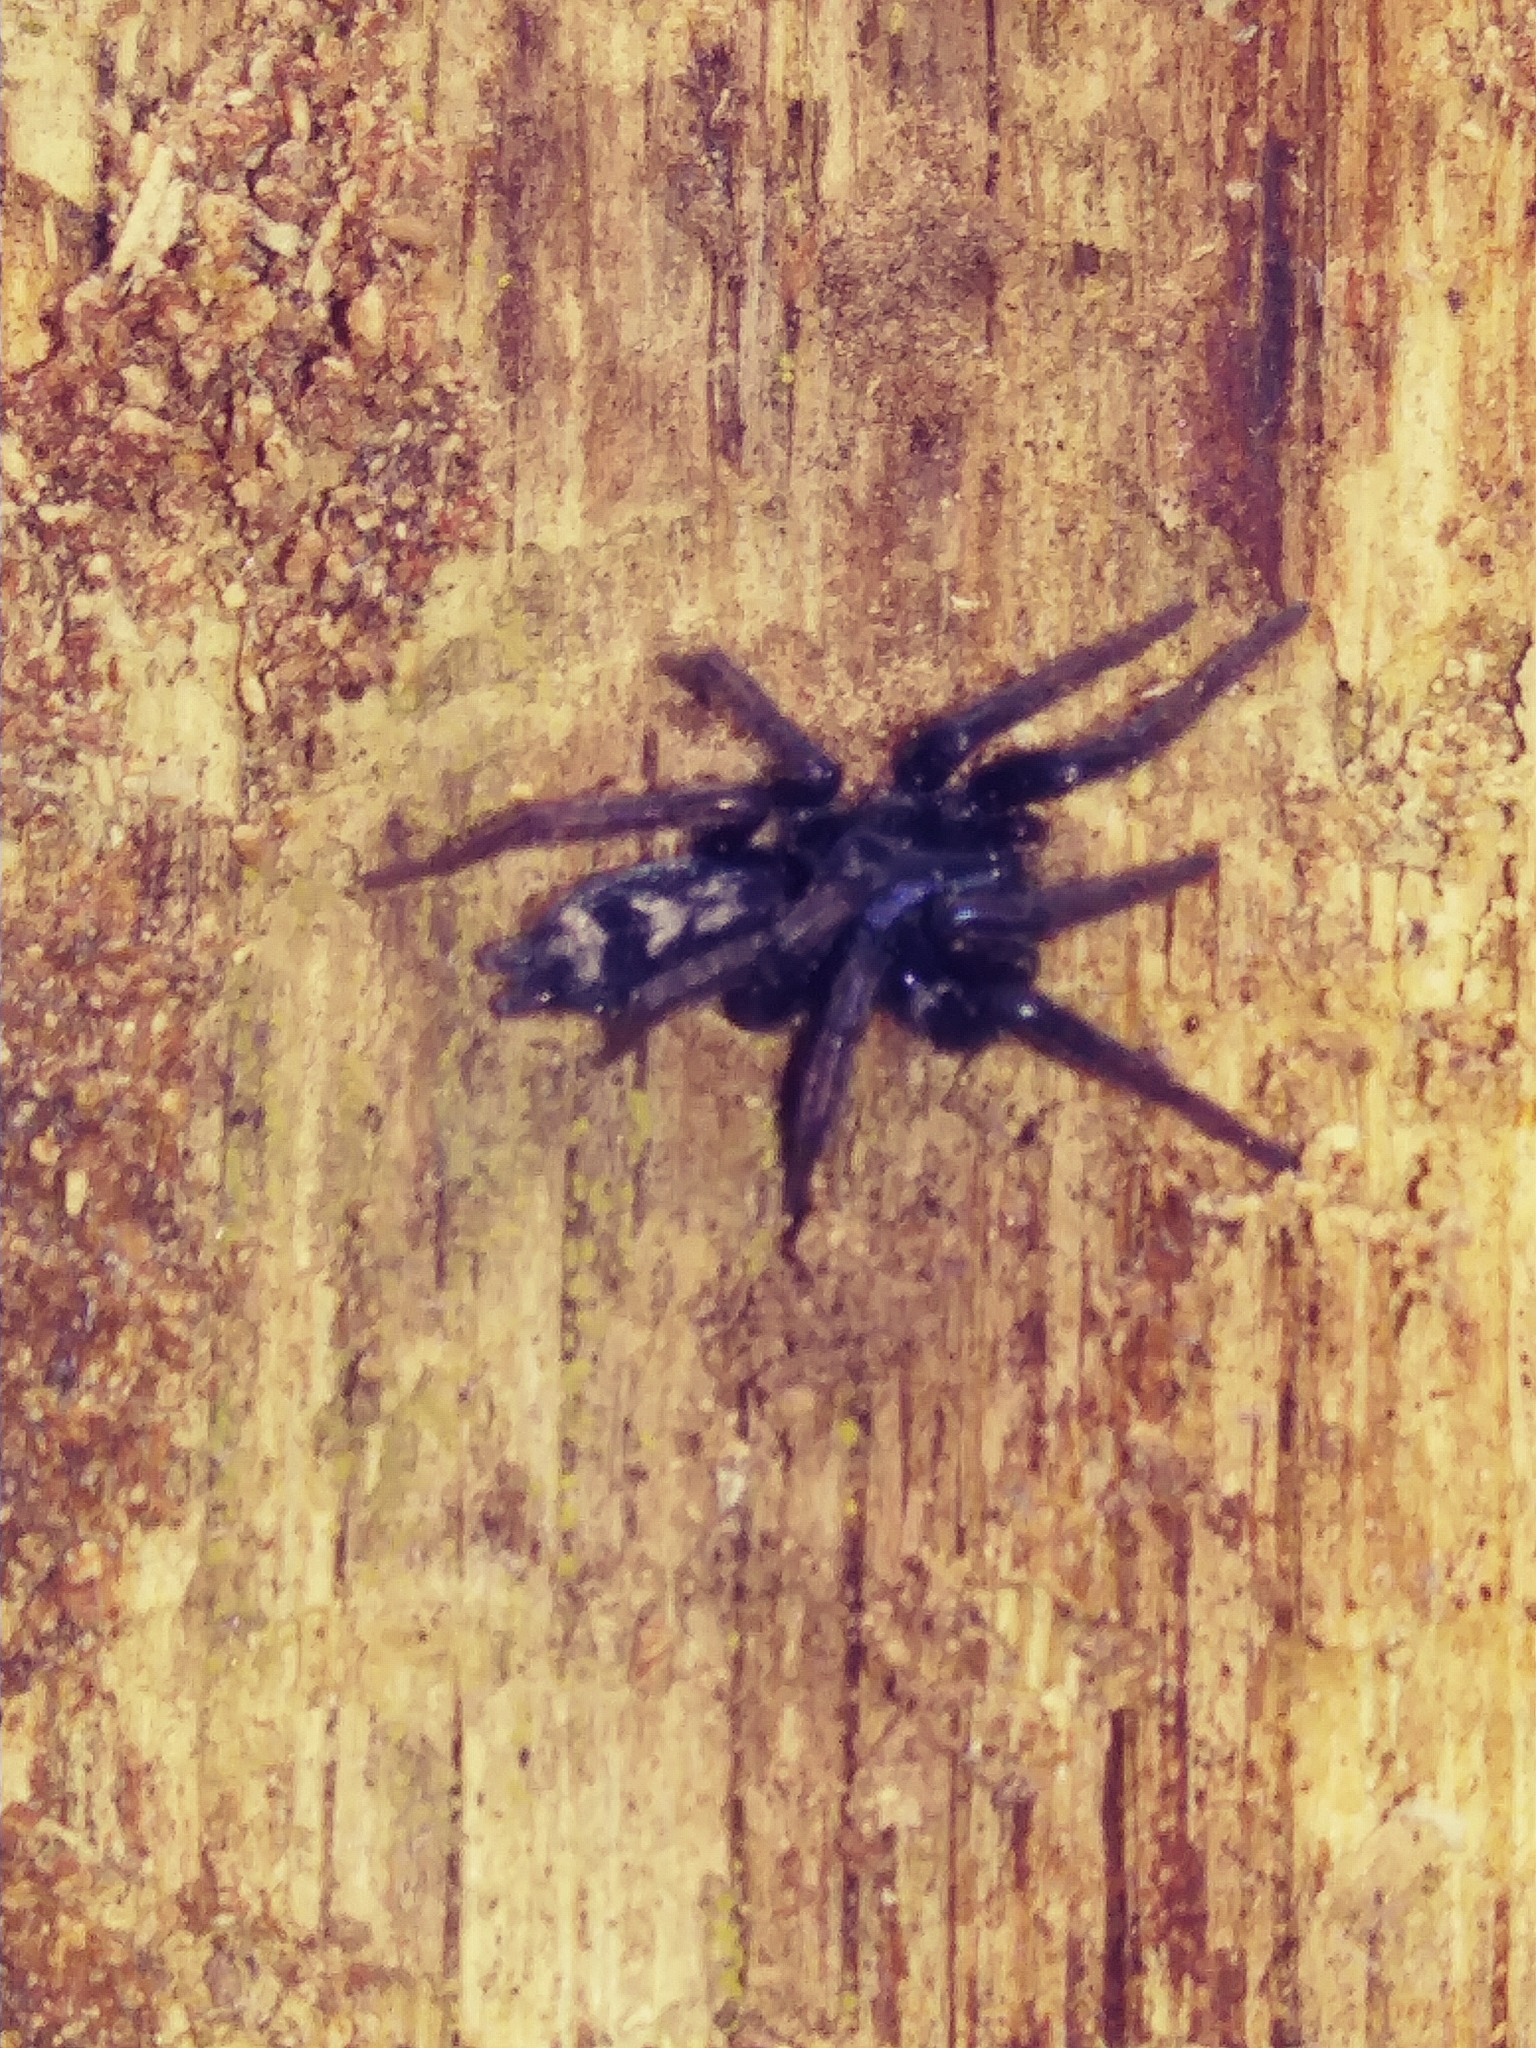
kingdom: Animalia
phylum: Arthropoda
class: Arachnida
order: Araneae
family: Gnaphosidae
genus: Herpyllus
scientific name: Herpyllus ecclesiasticus
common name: Eastern parson spider
